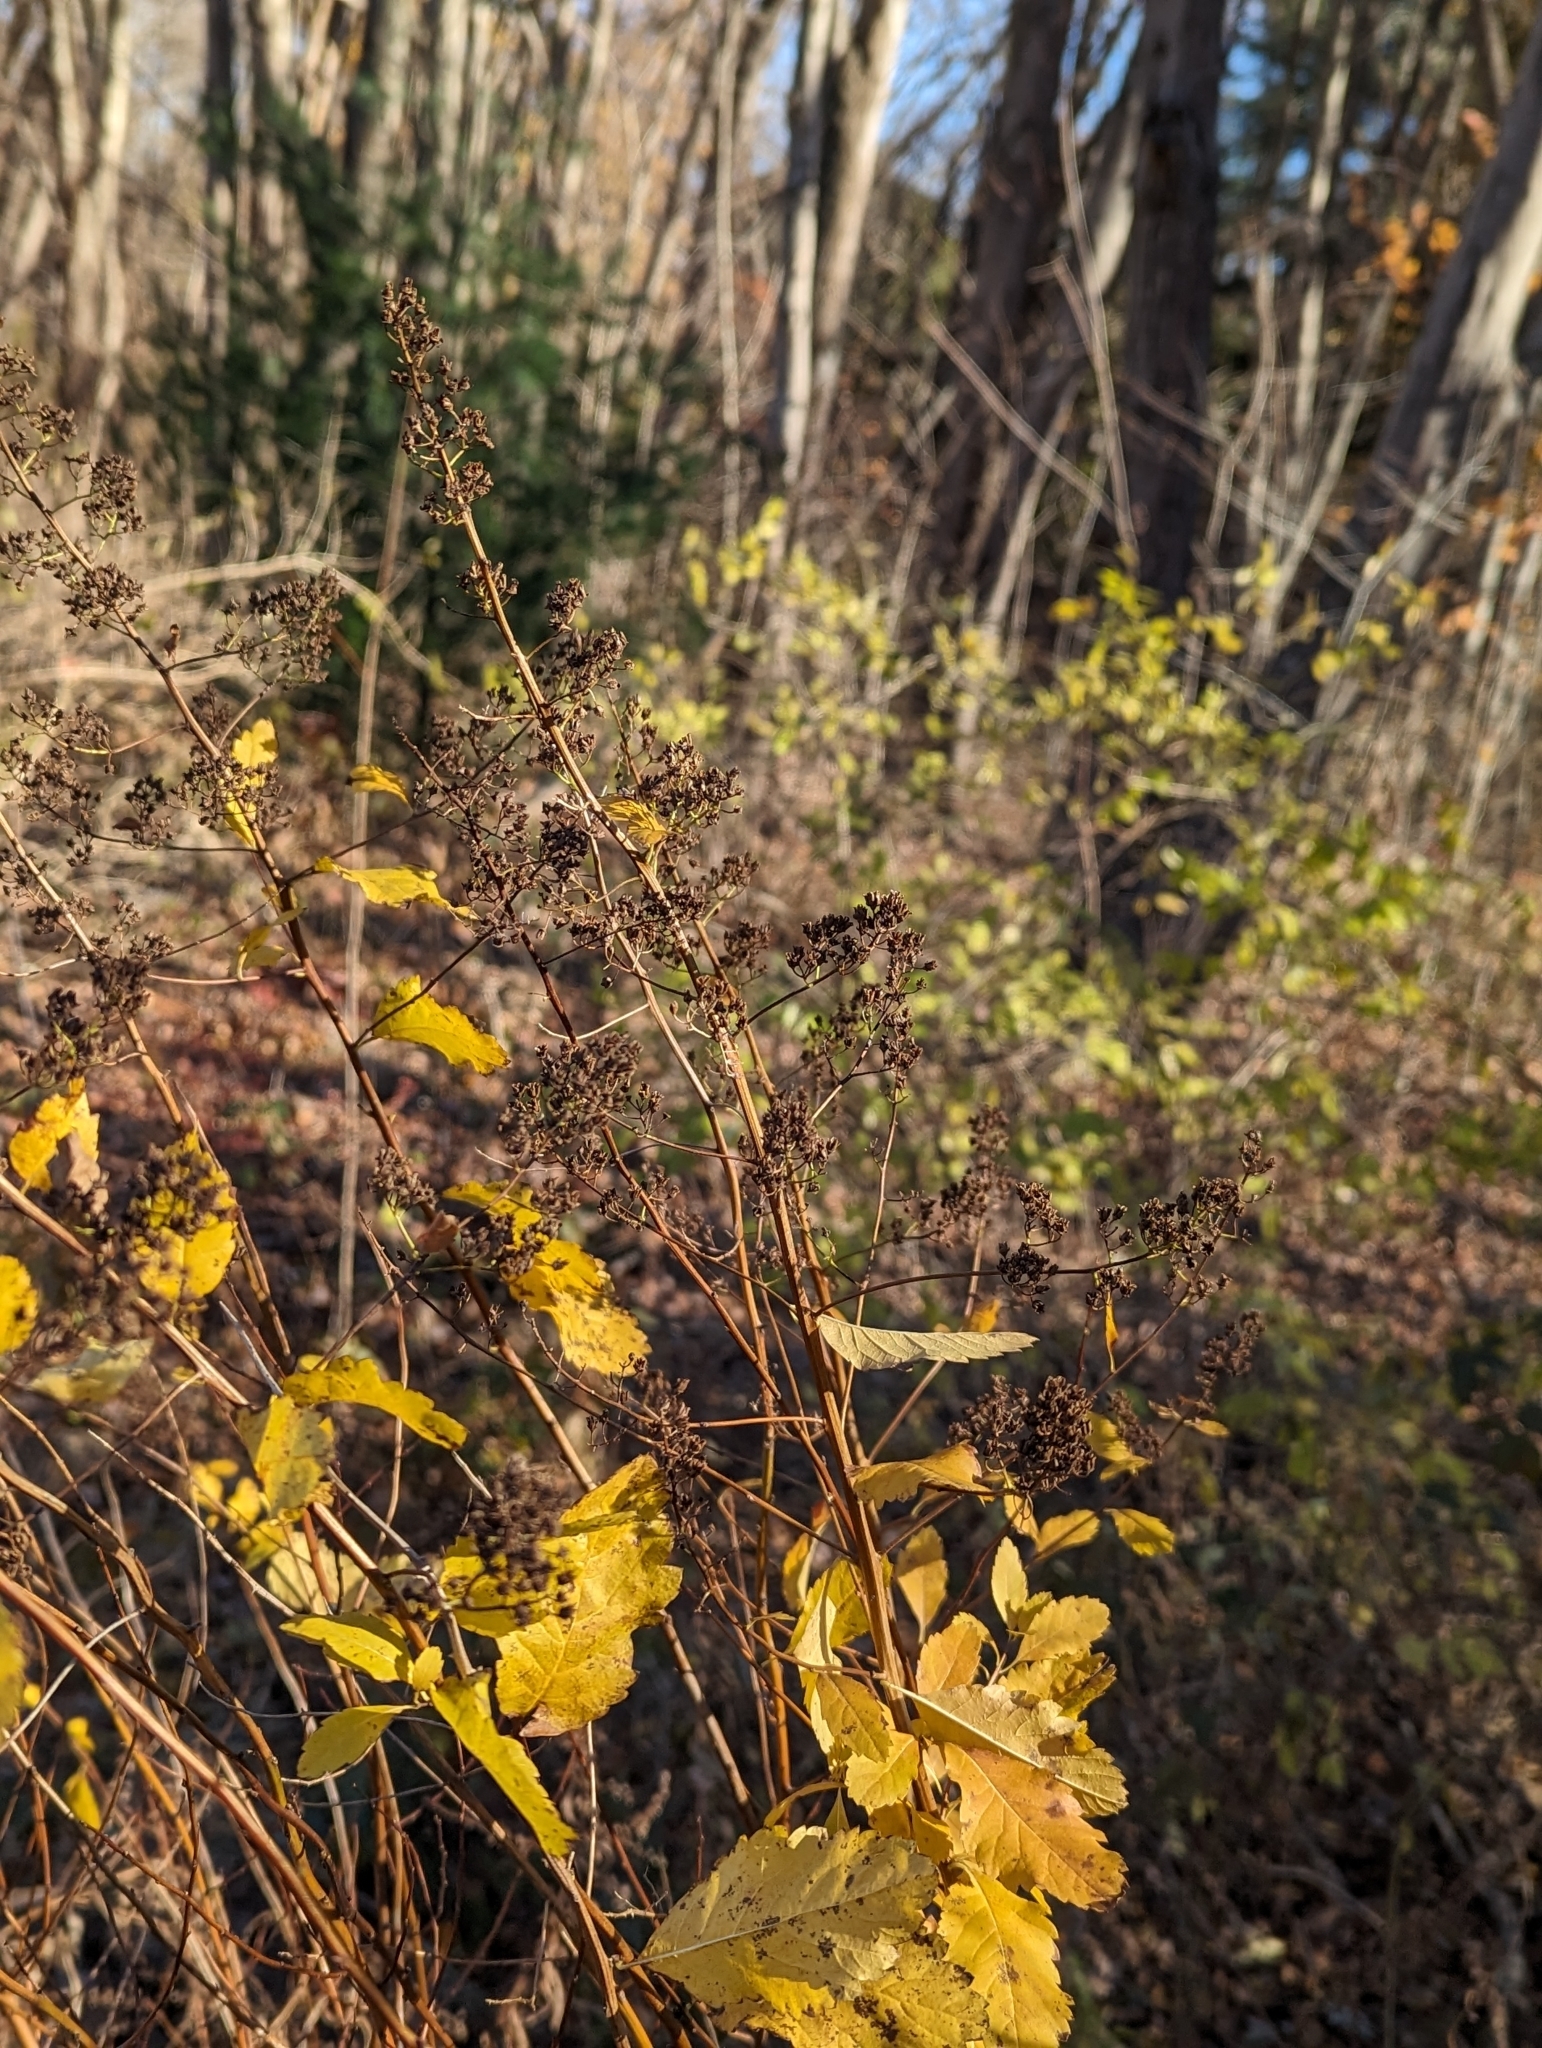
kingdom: Plantae
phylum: Tracheophyta
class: Magnoliopsida
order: Rosales
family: Rosaceae
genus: Spiraea
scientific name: Spiraea alba
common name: Pale bridewort
